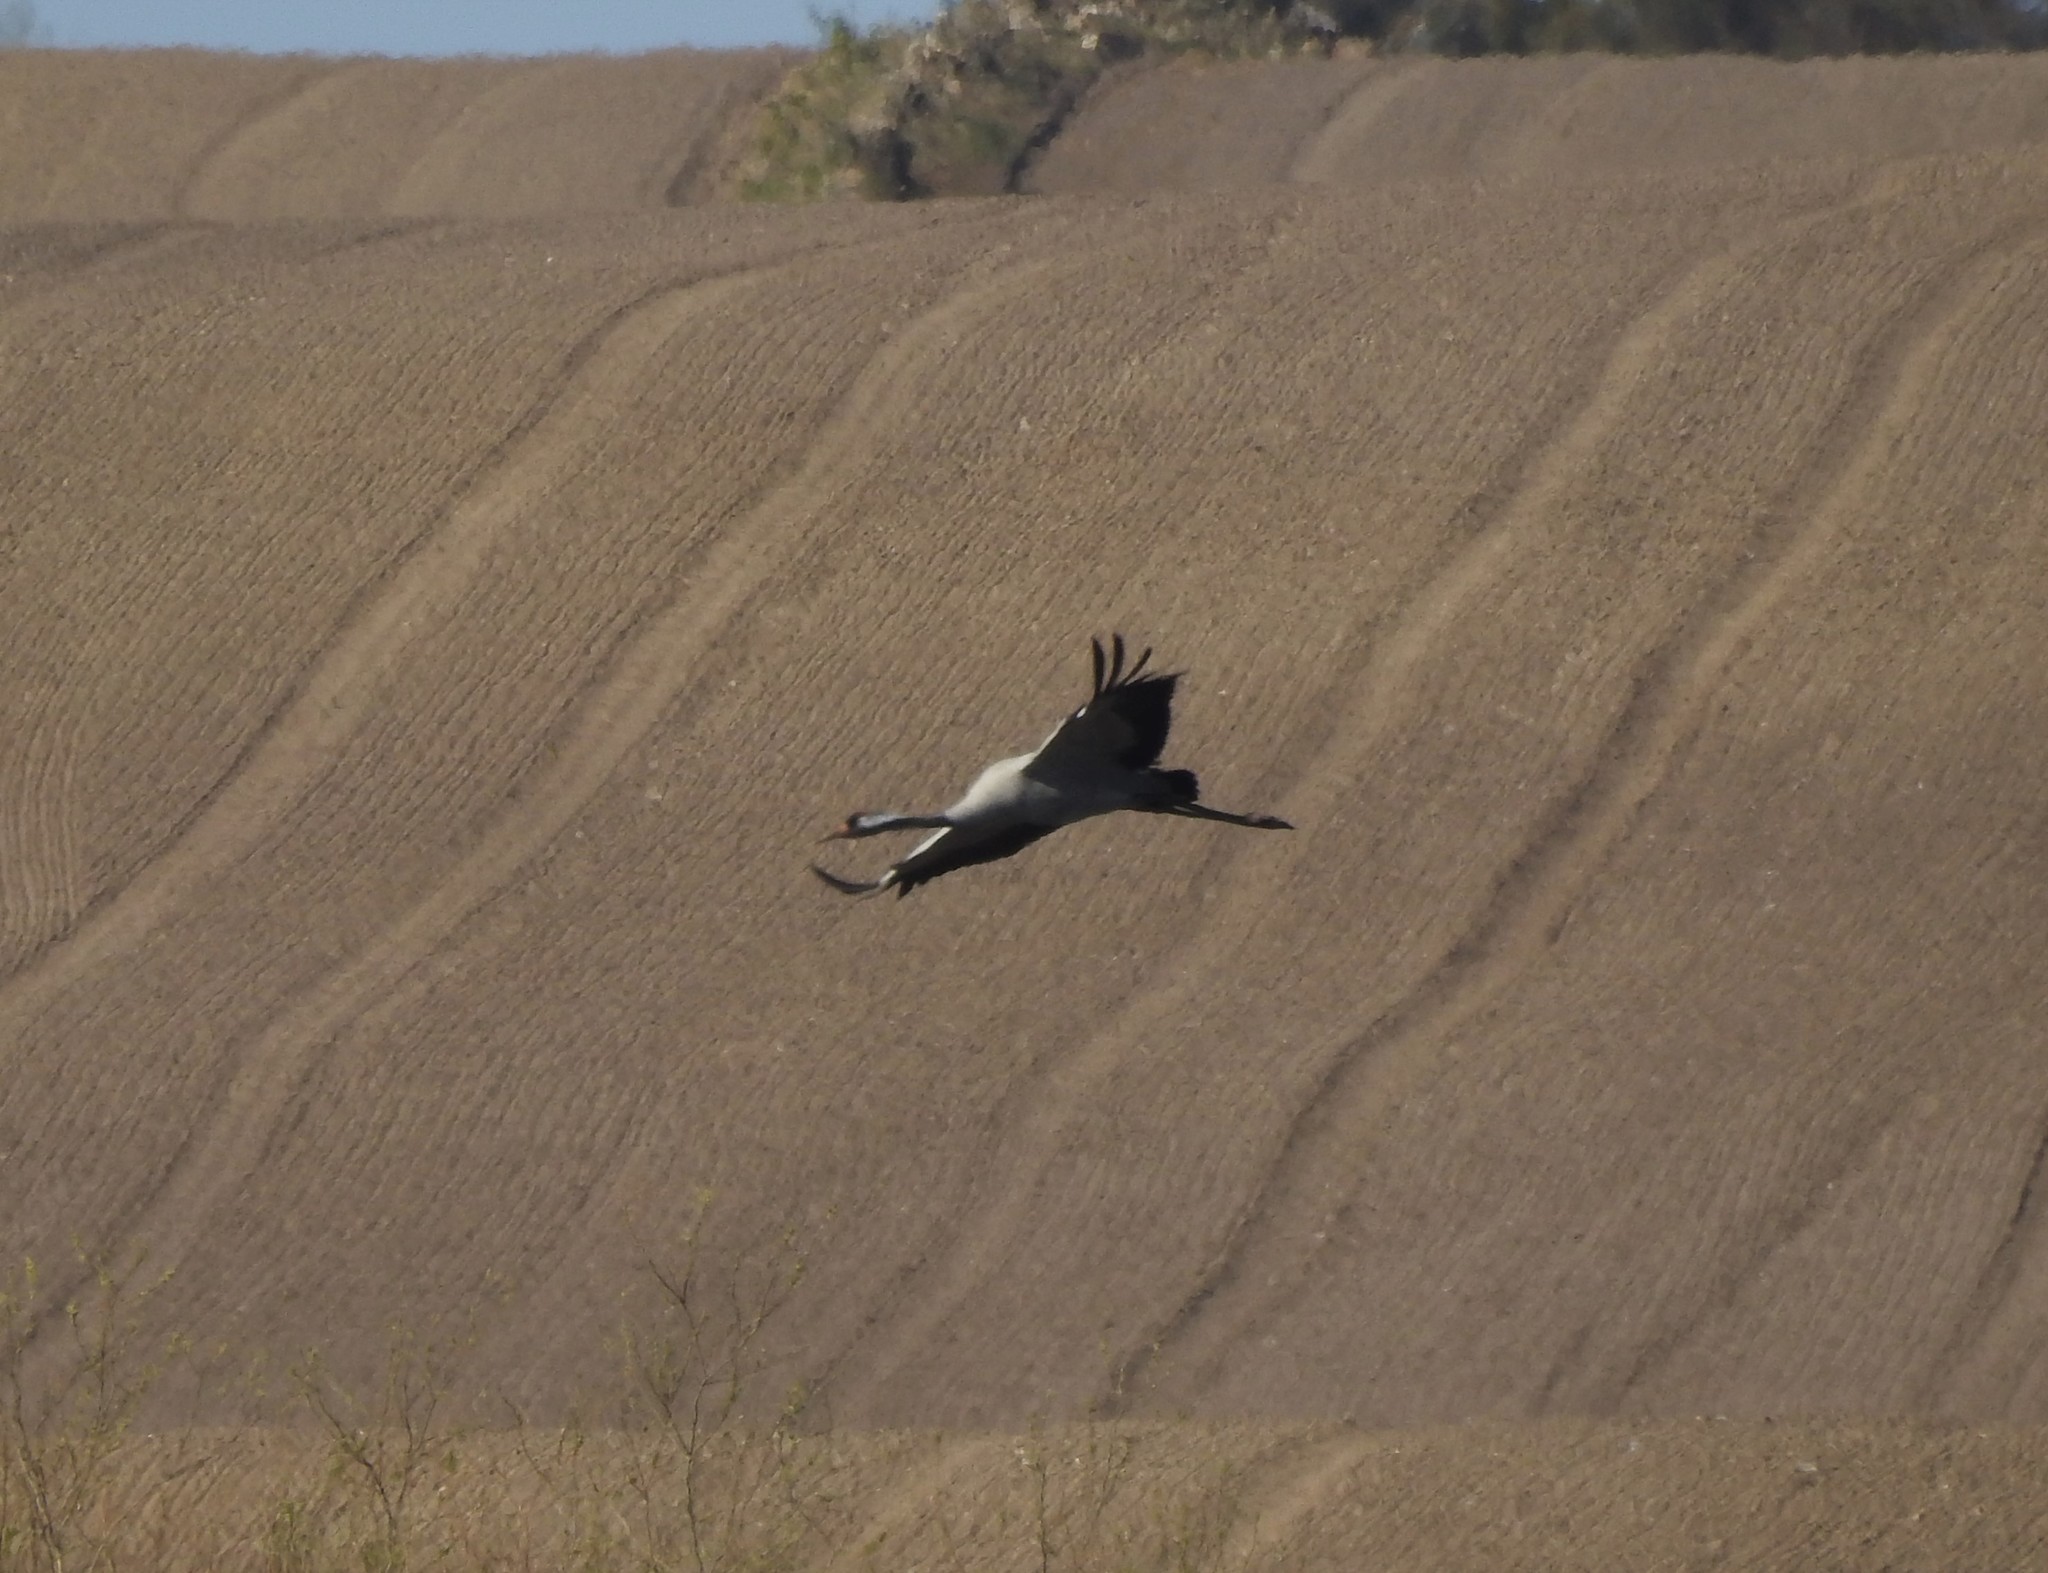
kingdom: Animalia
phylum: Chordata
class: Aves
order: Gruiformes
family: Gruidae
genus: Grus
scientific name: Grus grus
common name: Common crane
